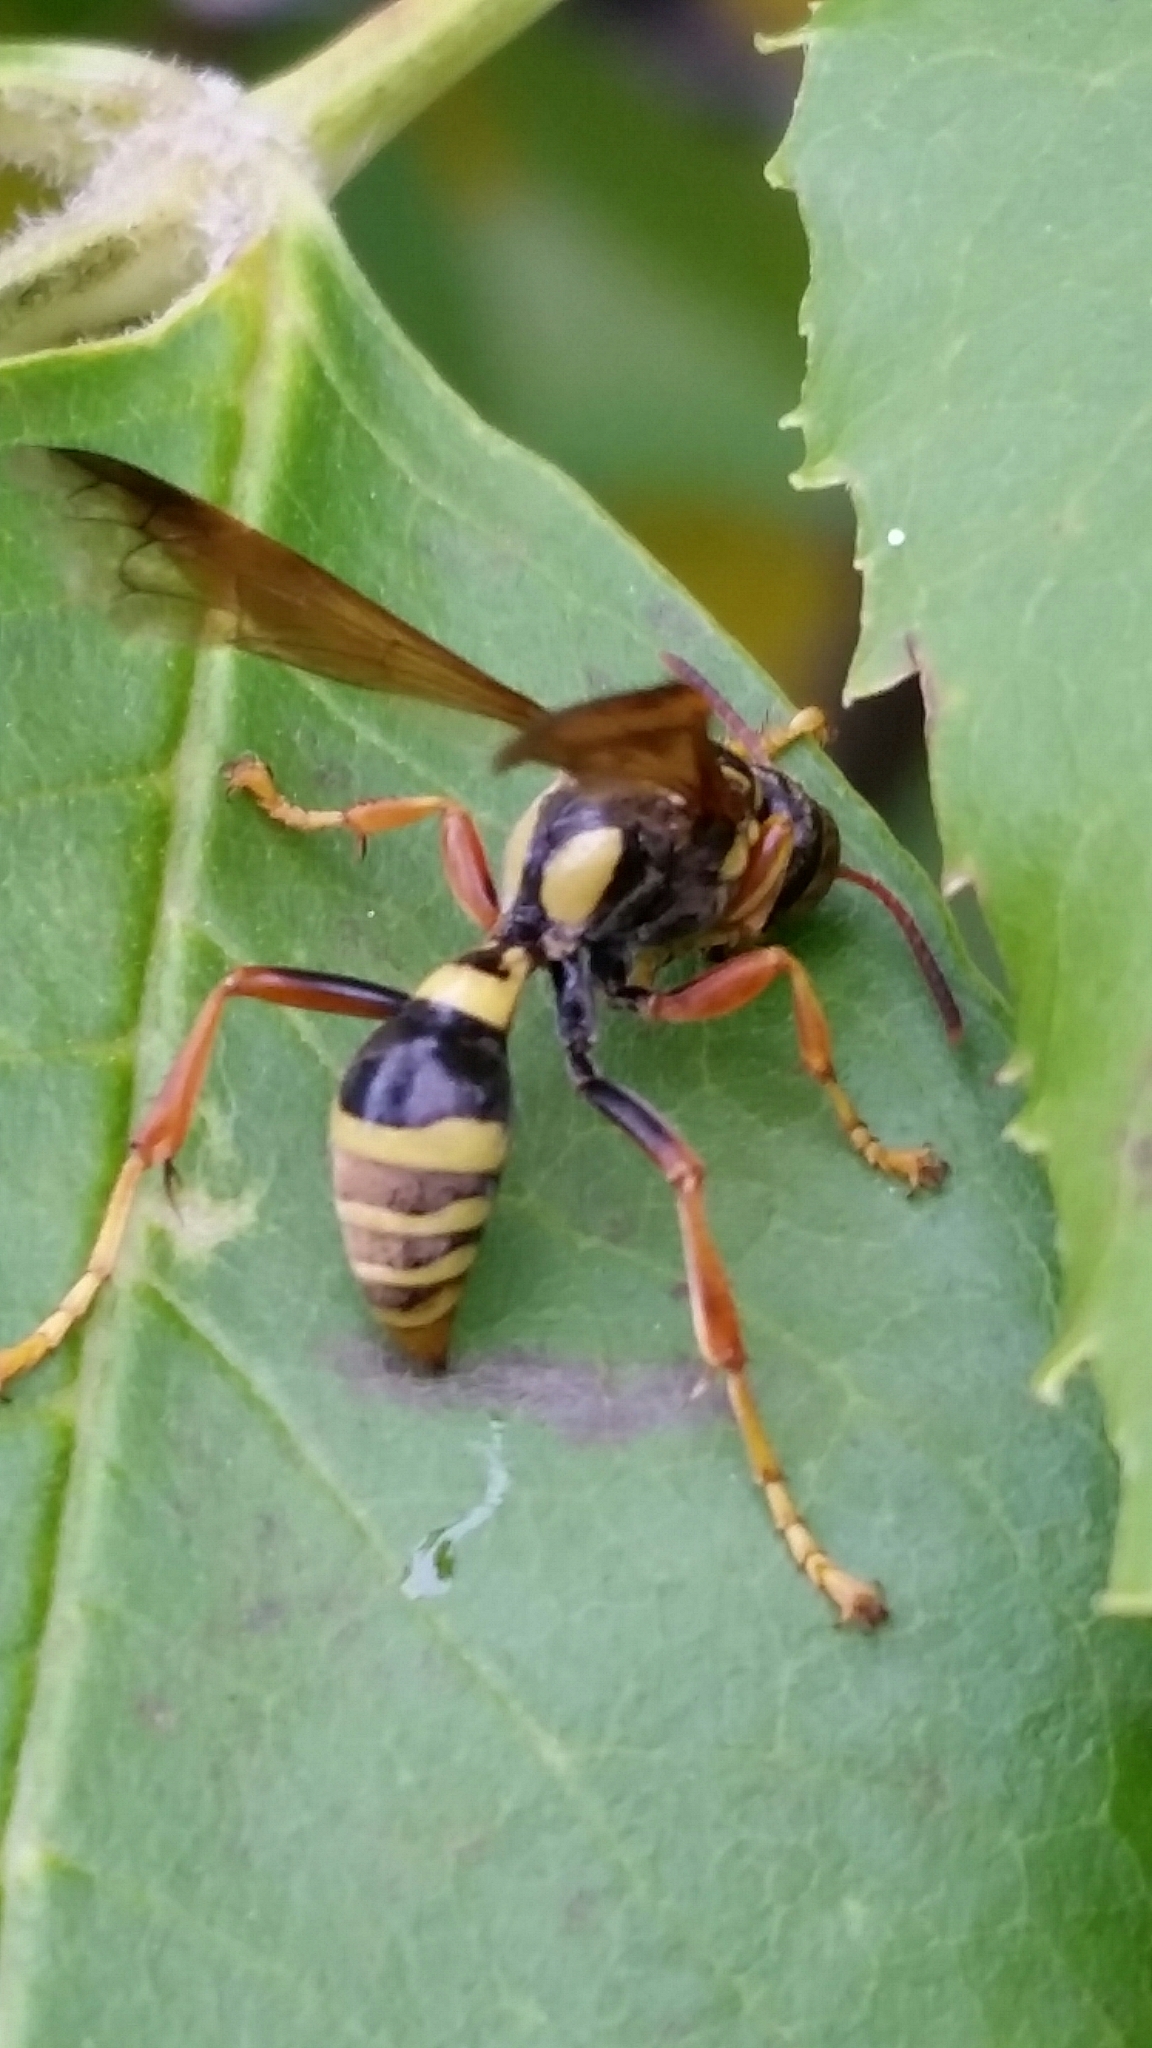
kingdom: Animalia
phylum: Arthropoda
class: Insecta
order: Hymenoptera
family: Crabronidae
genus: Saygorytes
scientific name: Saygorytes phaleratus
